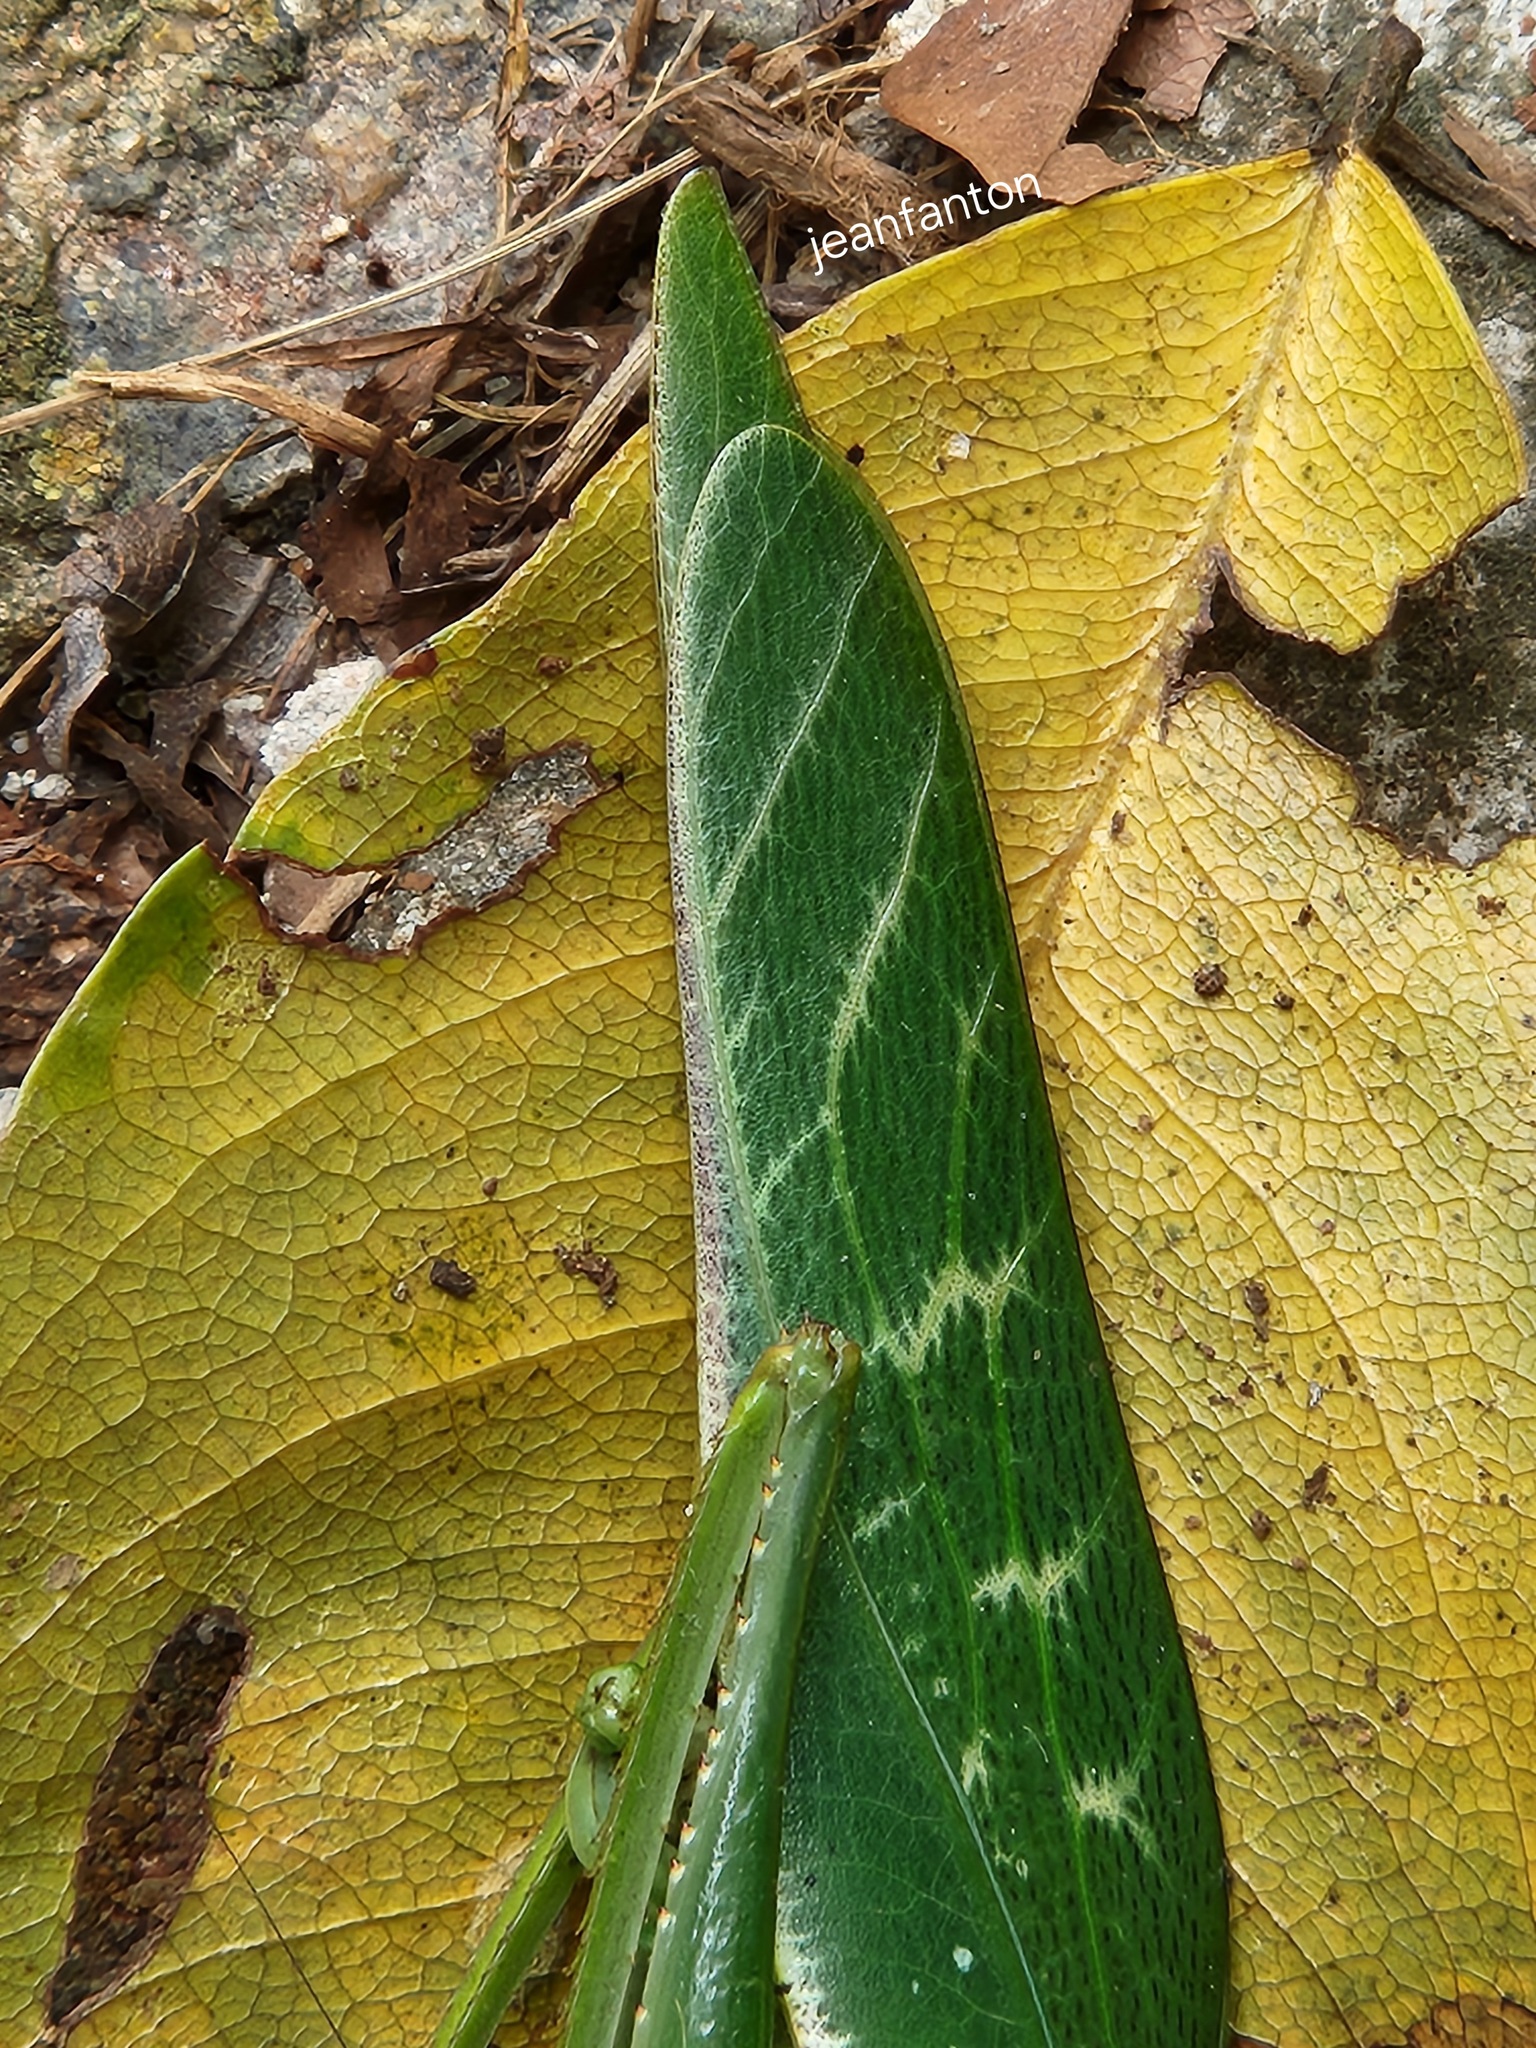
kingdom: Animalia
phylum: Arthropoda
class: Insecta
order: Orthoptera
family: Tettigoniidae
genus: Philophyllia
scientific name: Philophyllia latior
